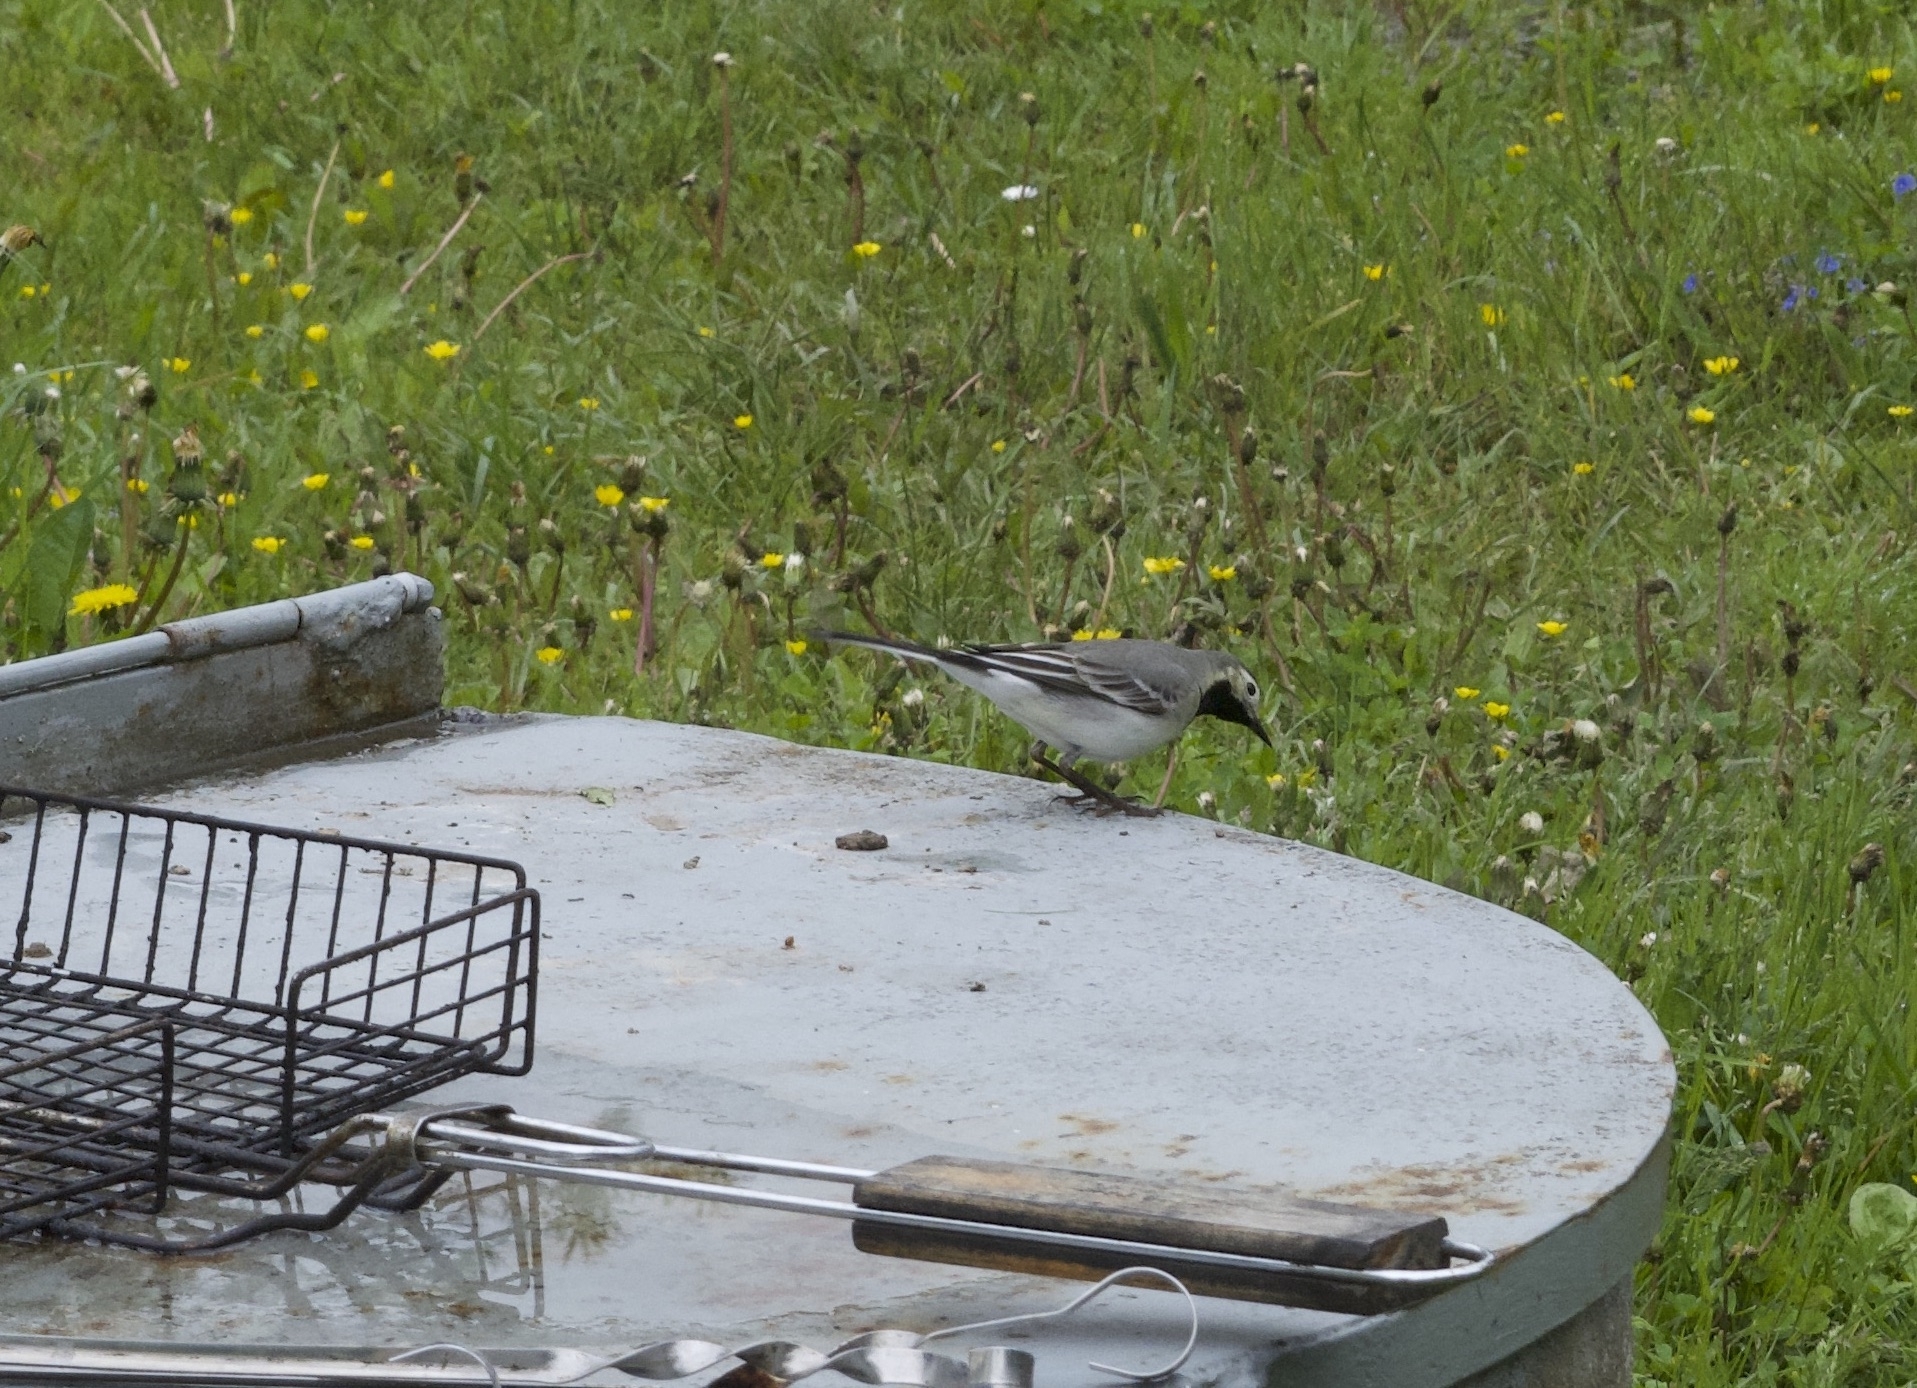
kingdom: Animalia
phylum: Chordata
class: Aves
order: Passeriformes
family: Motacillidae
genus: Motacilla
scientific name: Motacilla alba
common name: White wagtail
